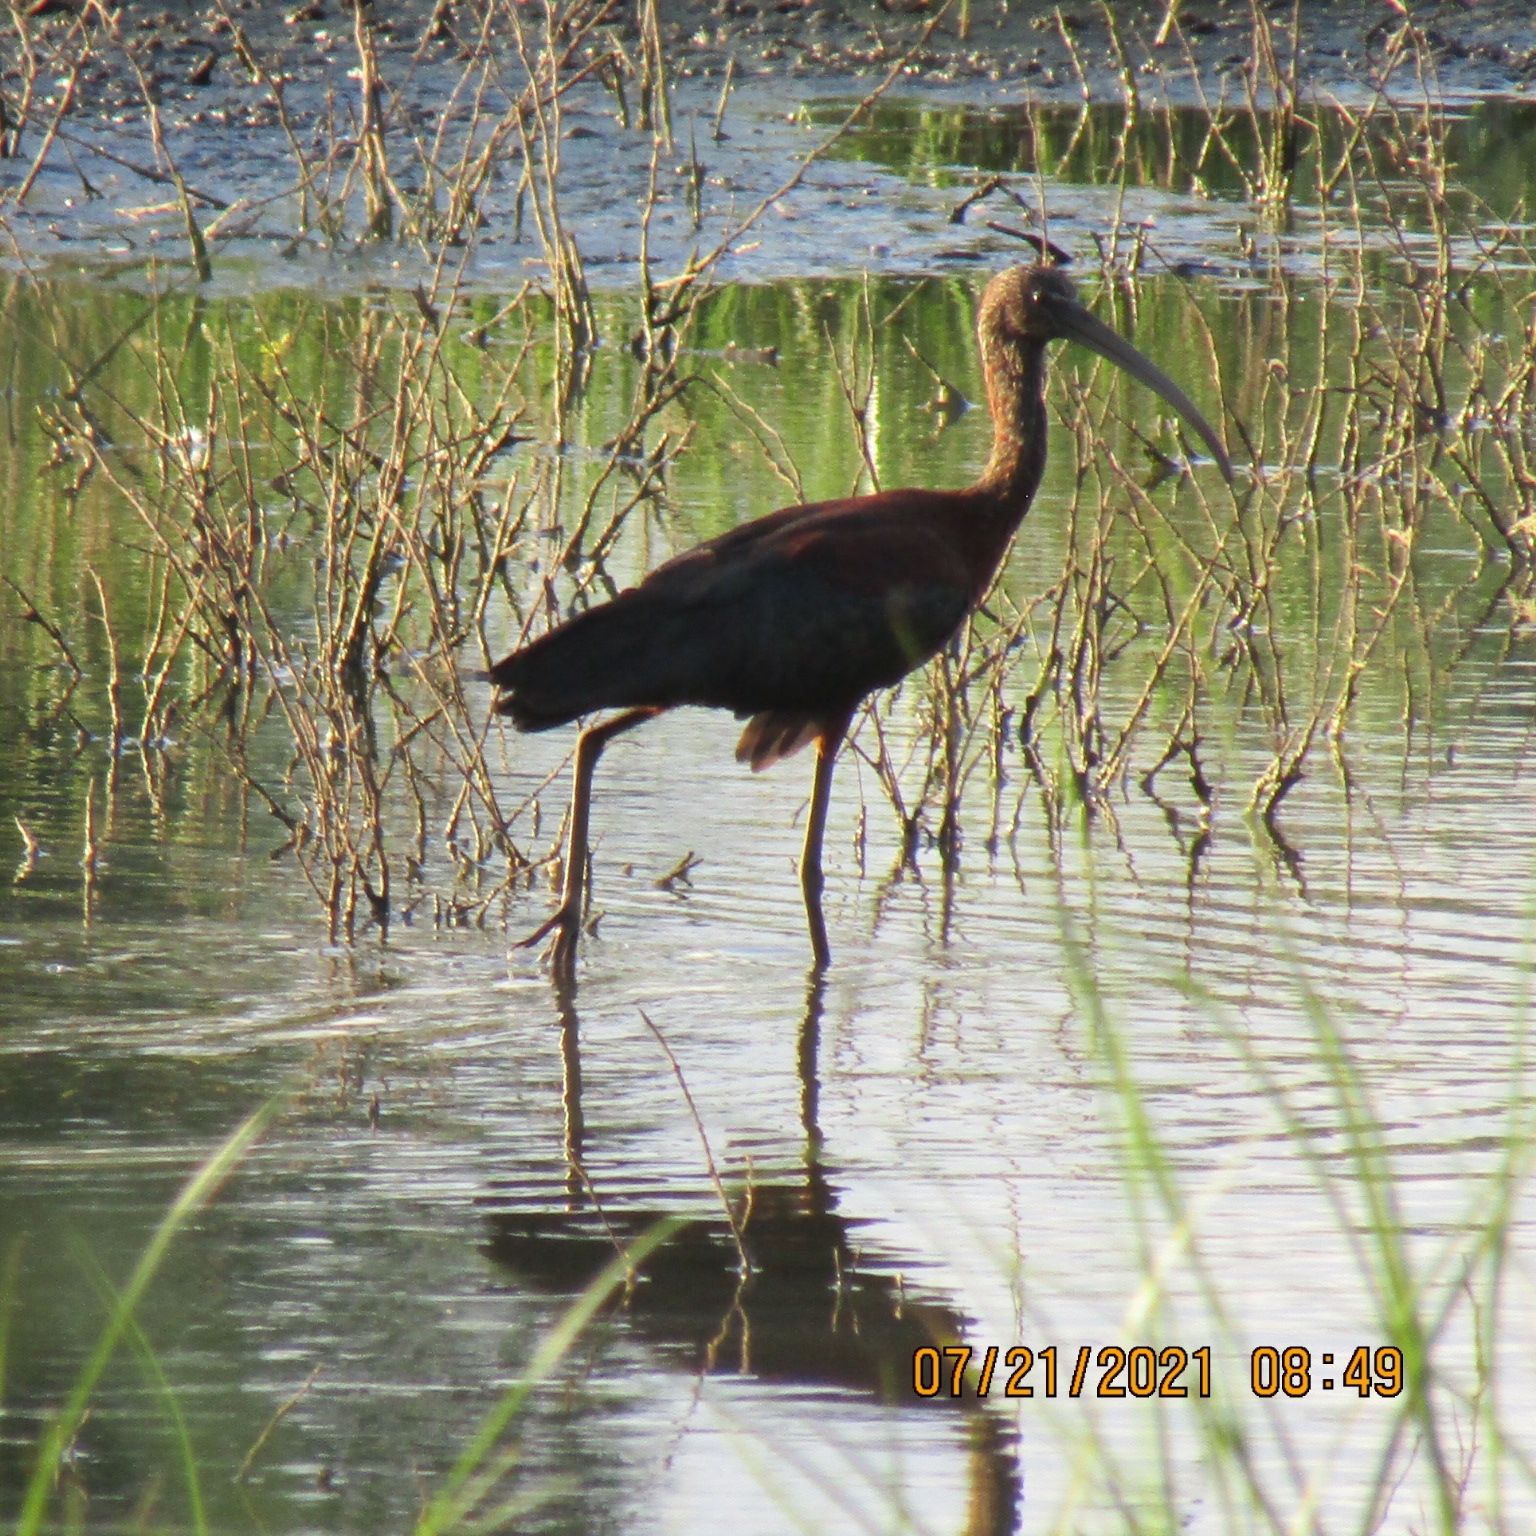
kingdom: Animalia
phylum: Chordata
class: Aves
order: Pelecaniformes
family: Threskiornithidae
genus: Plegadis
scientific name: Plegadis falcinellus
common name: Glossy ibis
